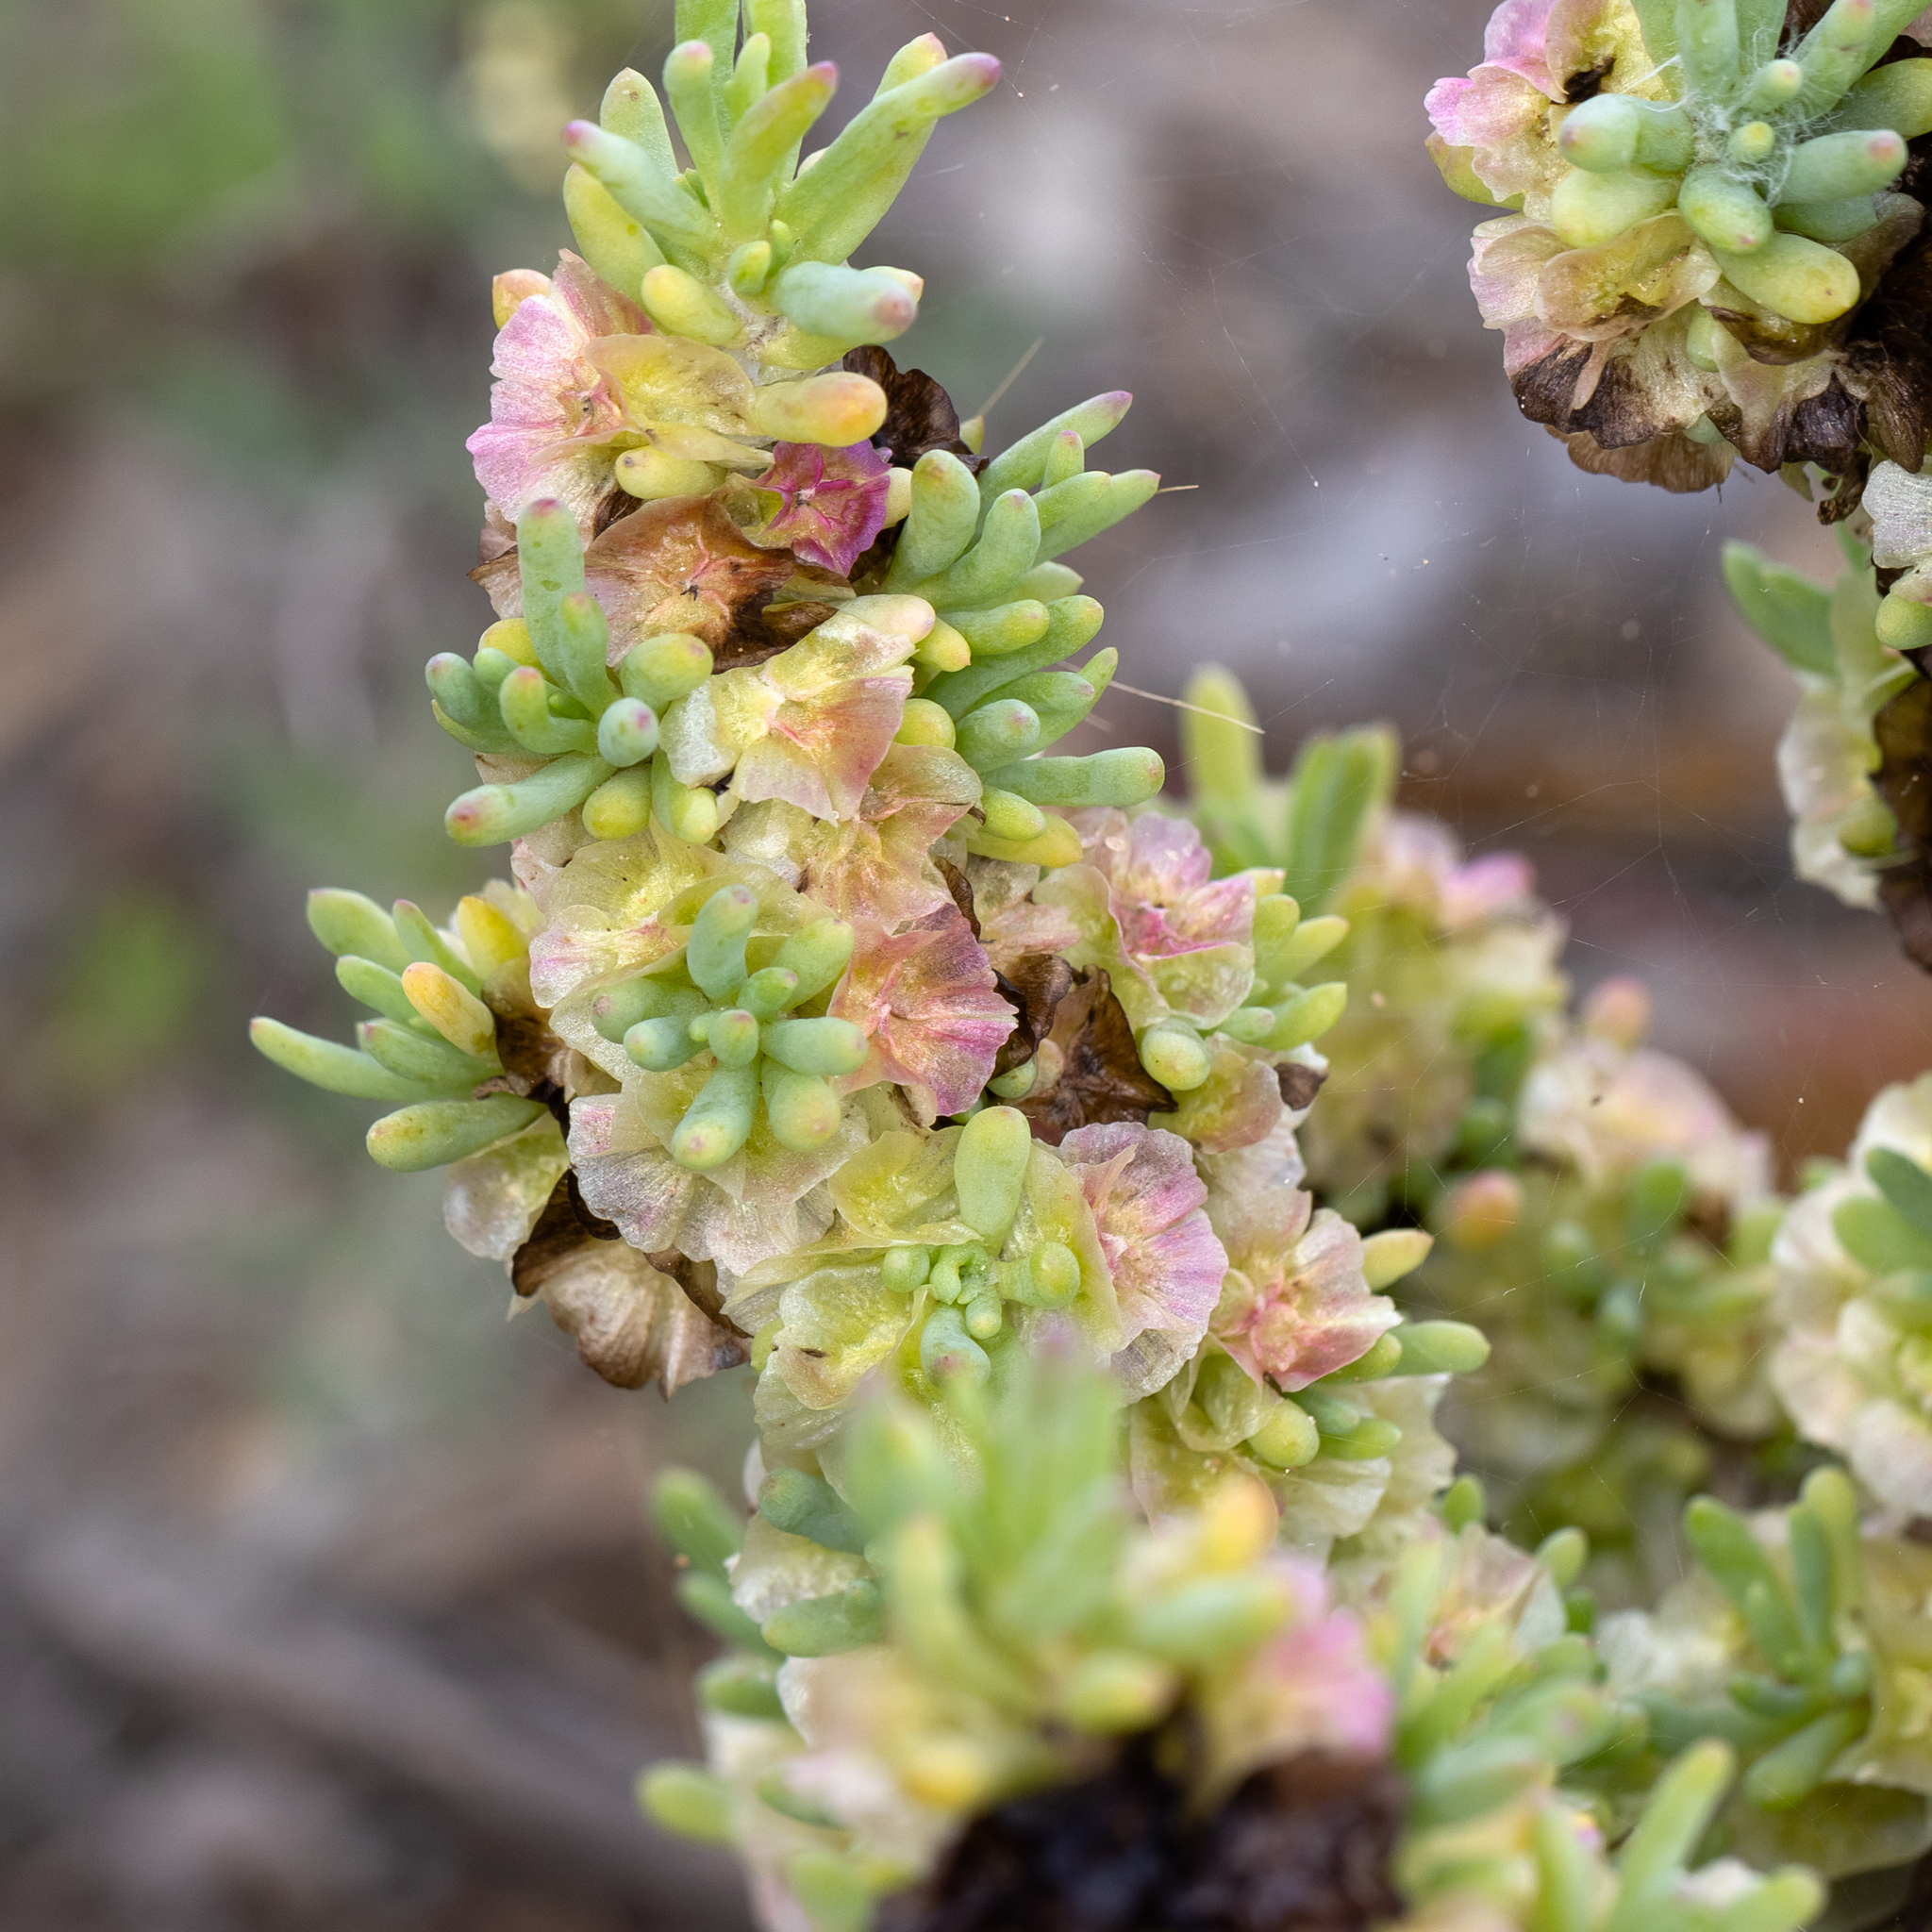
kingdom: Plantae
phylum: Tracheophyta
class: Magnoliopsida
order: Caryophyllales
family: Amaranthaceae
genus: Maireana
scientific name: Maireana erioclada
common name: Rosy bluebush
